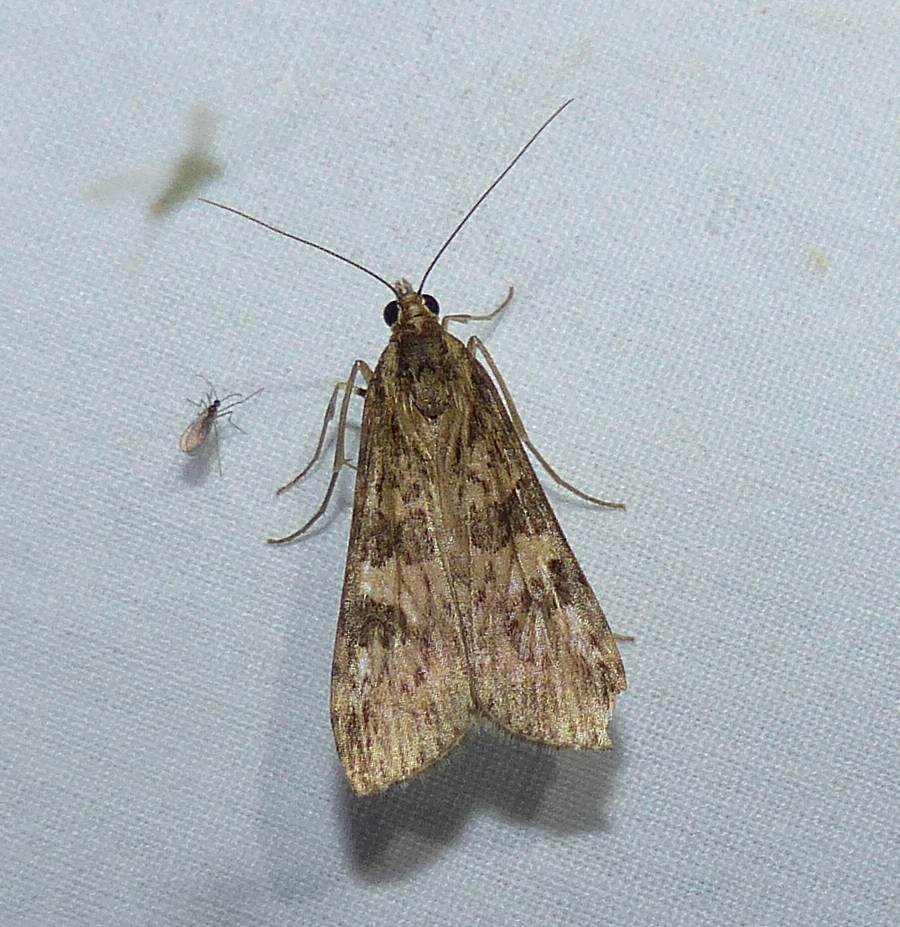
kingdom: Animalia
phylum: Arthropoda
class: Insecta
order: Lepidoptera
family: Crambidae
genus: Nomophila
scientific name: Nomophila nearctica
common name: American rush veneer
